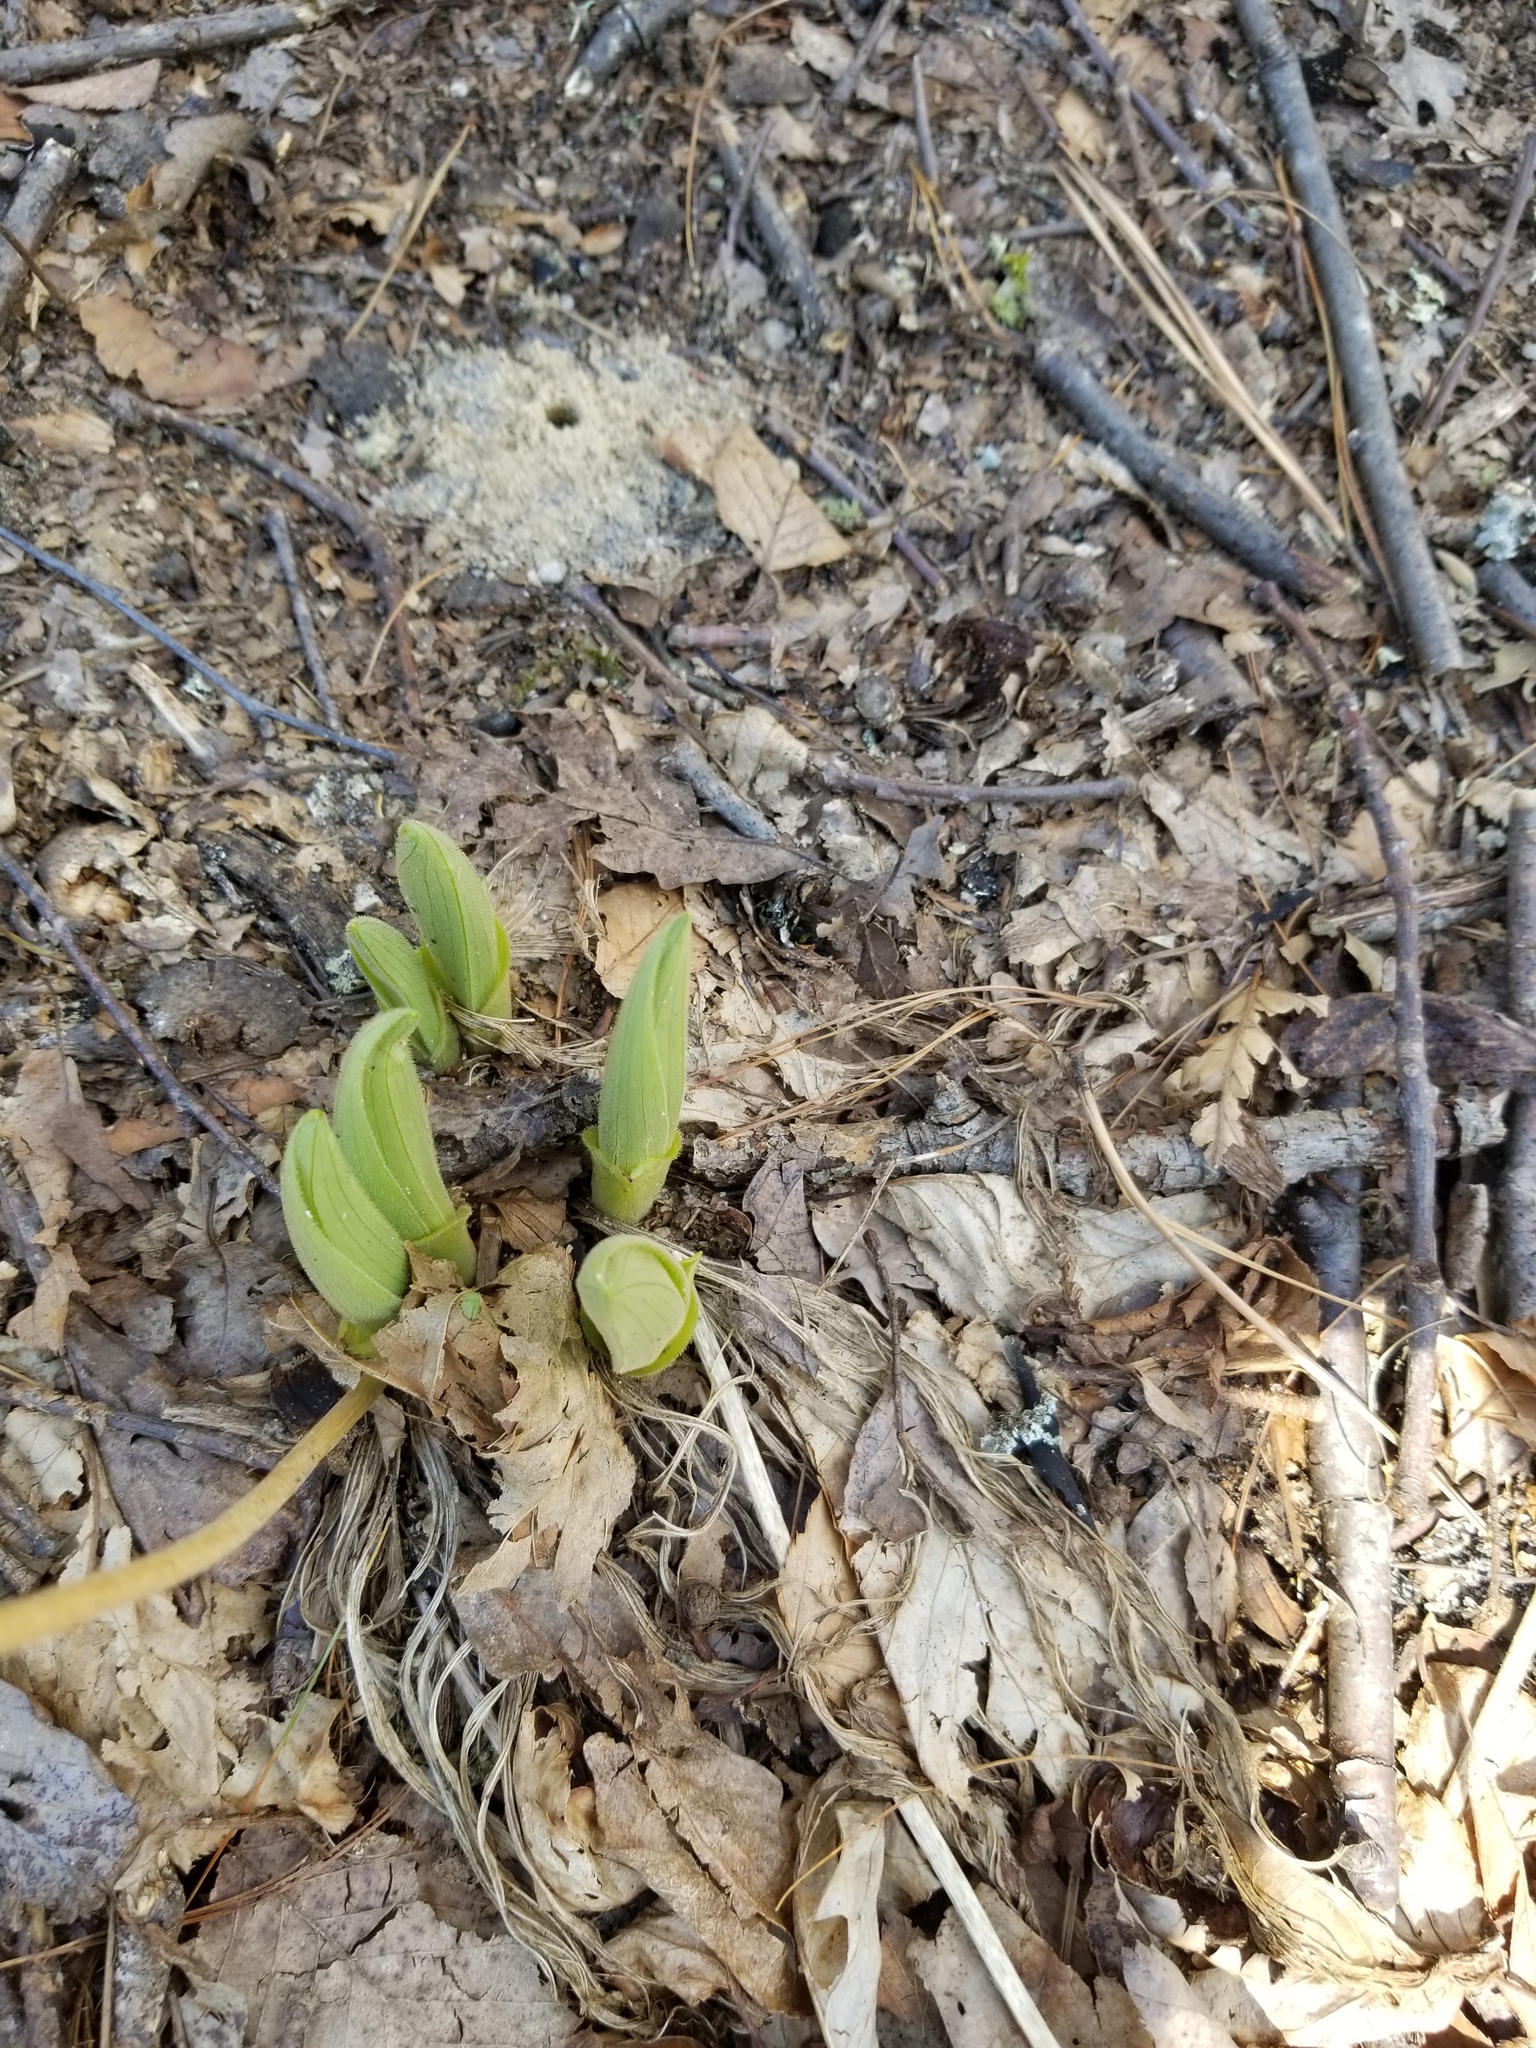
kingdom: Plantae
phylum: Tracheophyta
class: Liliopsida
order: Asparagales
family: Orchidaceae
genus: Cypripedium
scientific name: Cypripedium acaule
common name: Pink lady's-slipper
